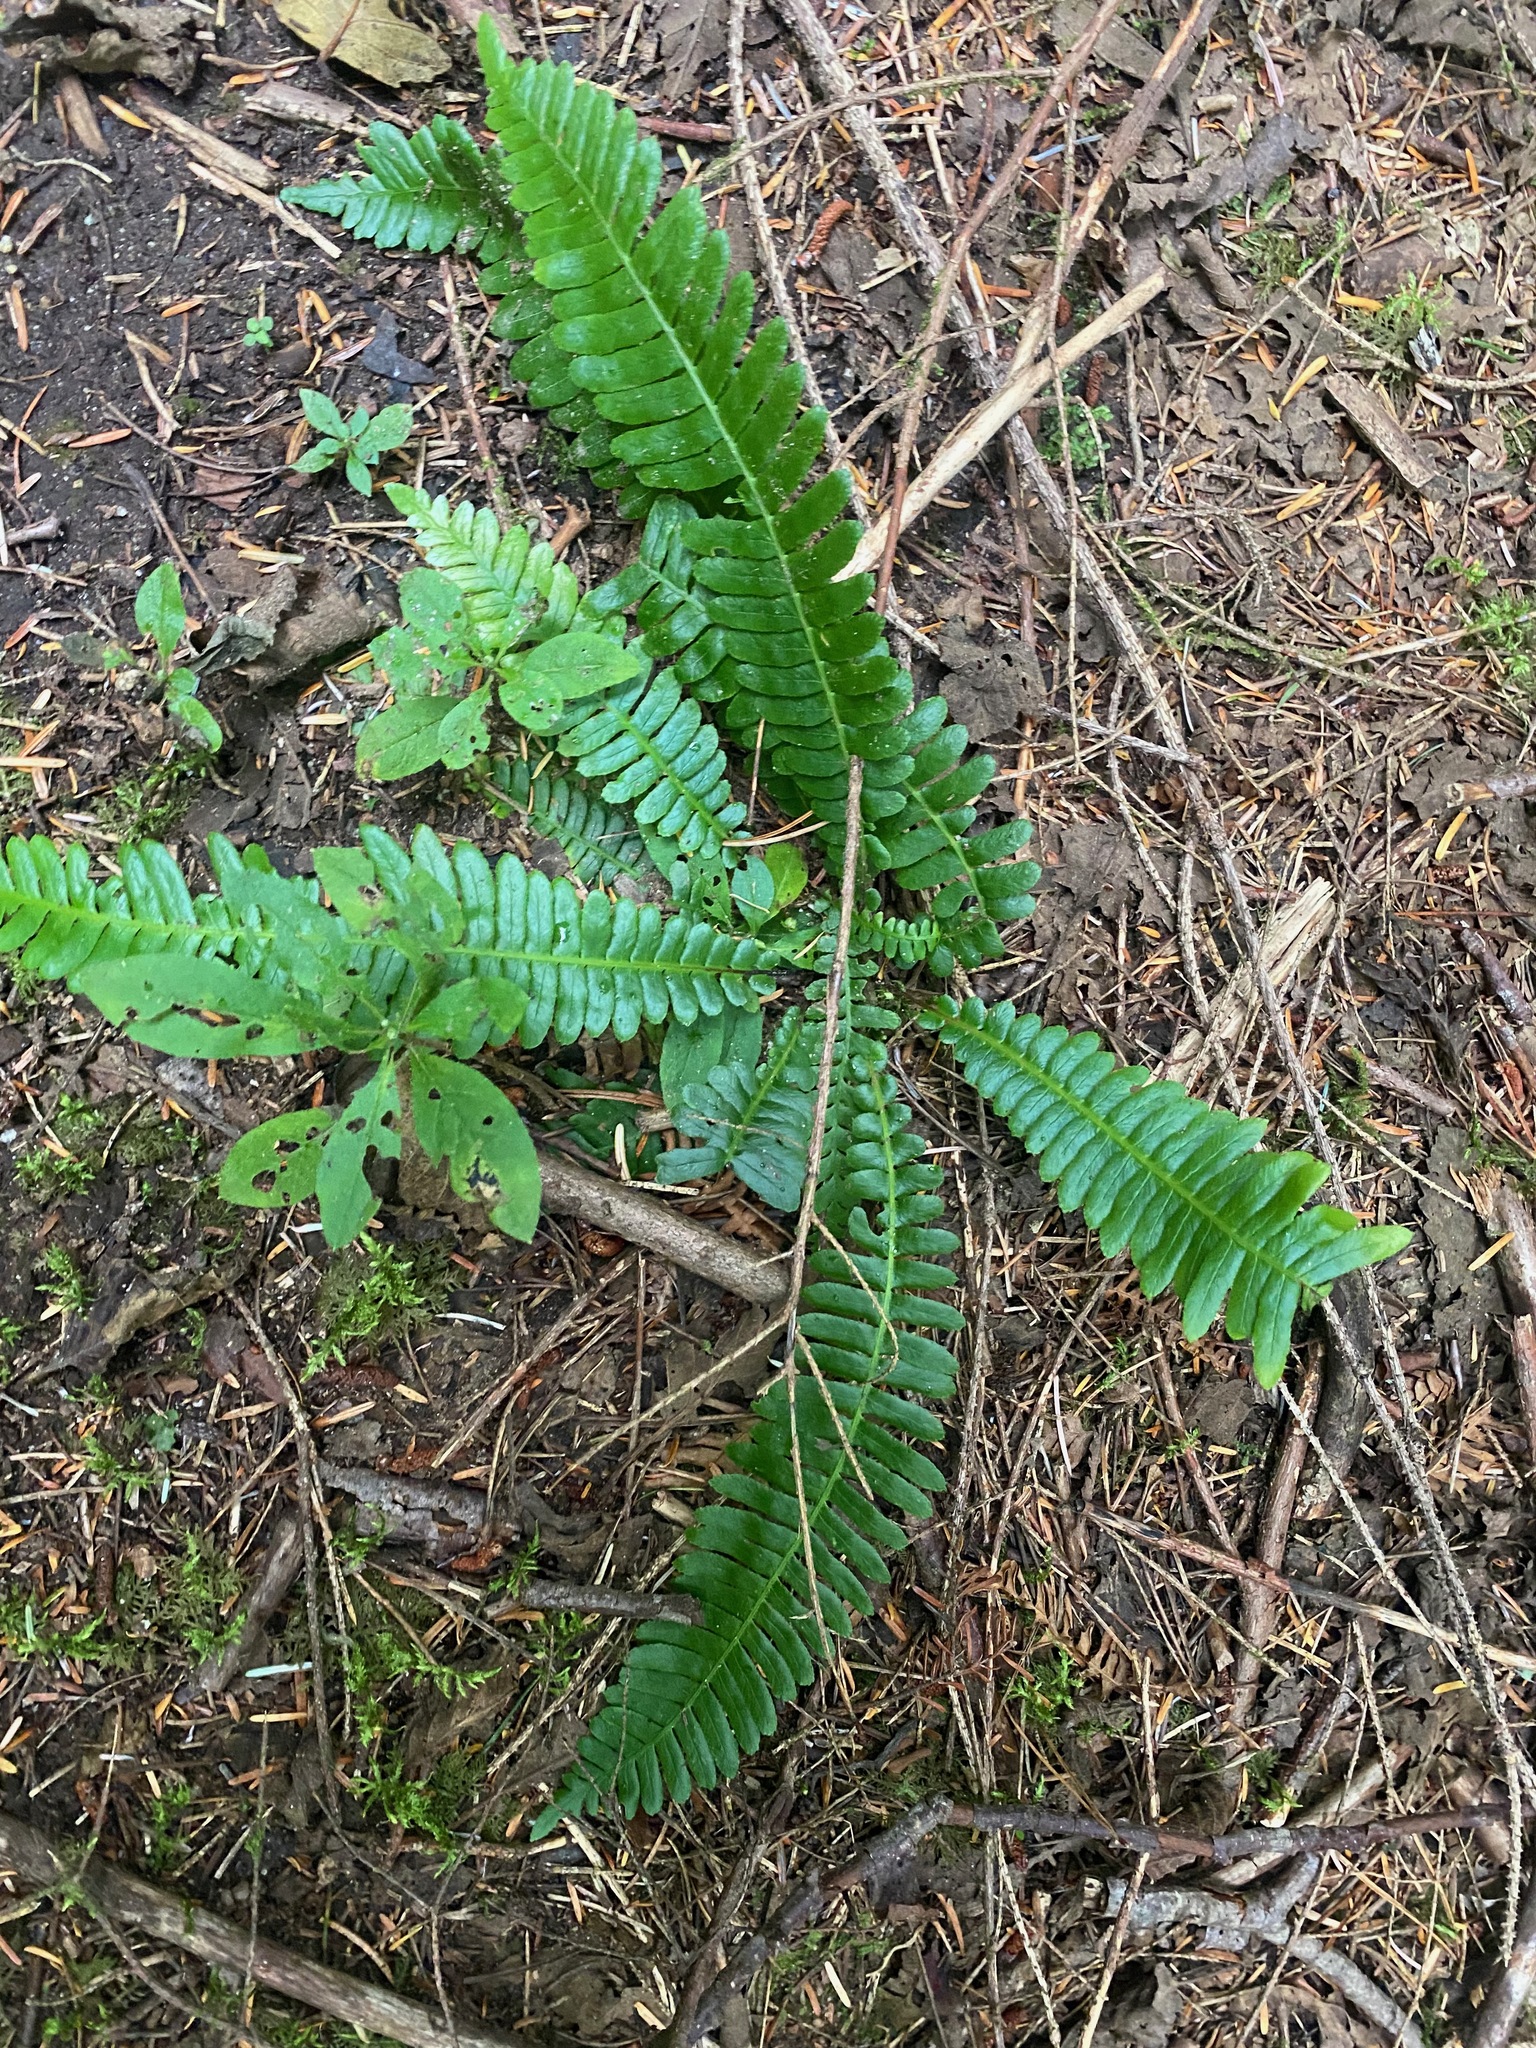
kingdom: Plantae
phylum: Tracheophyta
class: Polypodiopsida
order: Polypodiales
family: Blechnaceae
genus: Struthiopteris
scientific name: Struthiopteris spicant
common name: Deer fern
